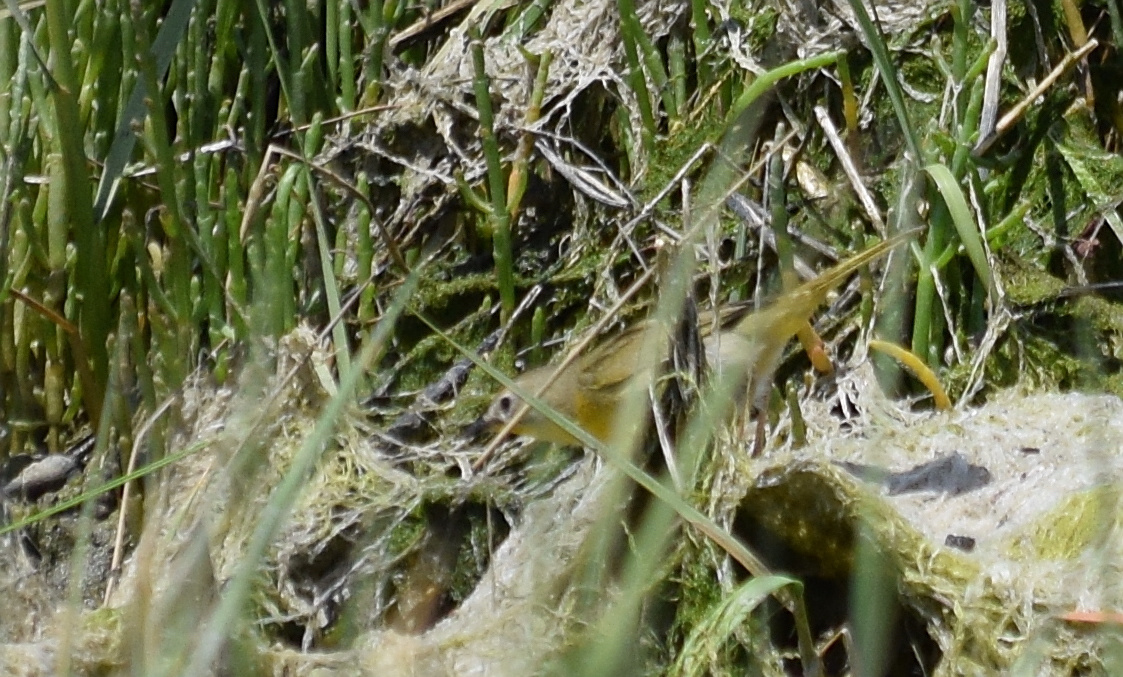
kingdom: Animalia
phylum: Chordata
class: Aves
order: Passeriformes
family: Parulidae
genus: Geothlypis
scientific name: Geothlypis trichas
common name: Common yellowthroat
